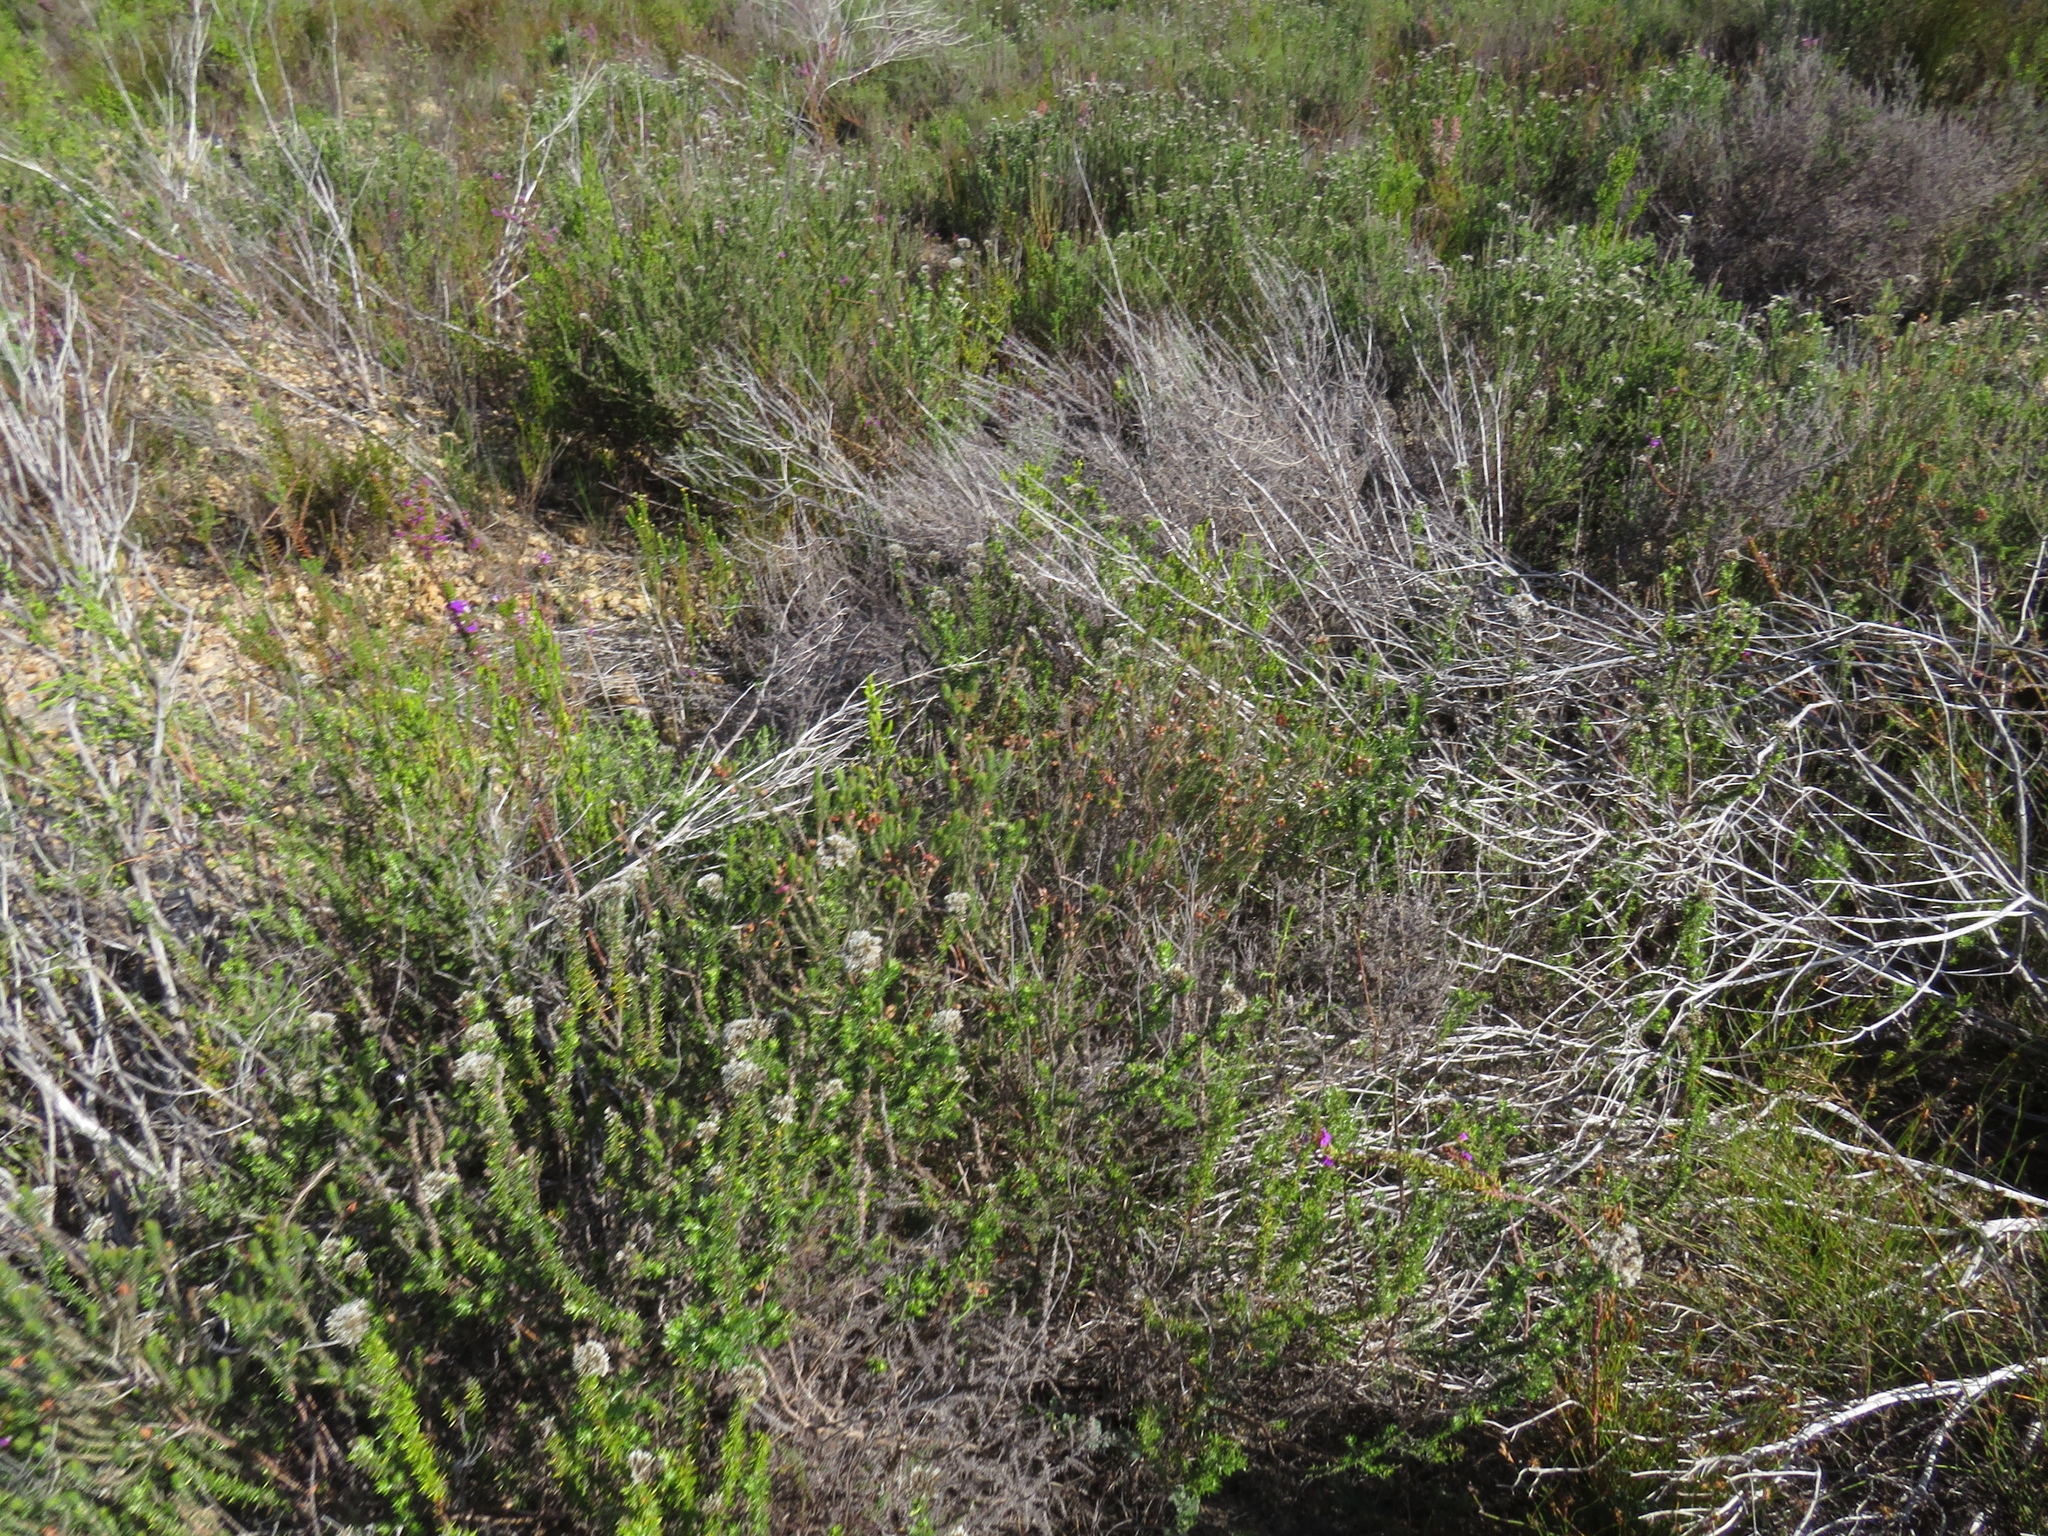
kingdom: Plantae
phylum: Tracheophyta
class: Magnoliopsida
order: Ericales
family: Ericaceae
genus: Erica
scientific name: Erica viscaria
